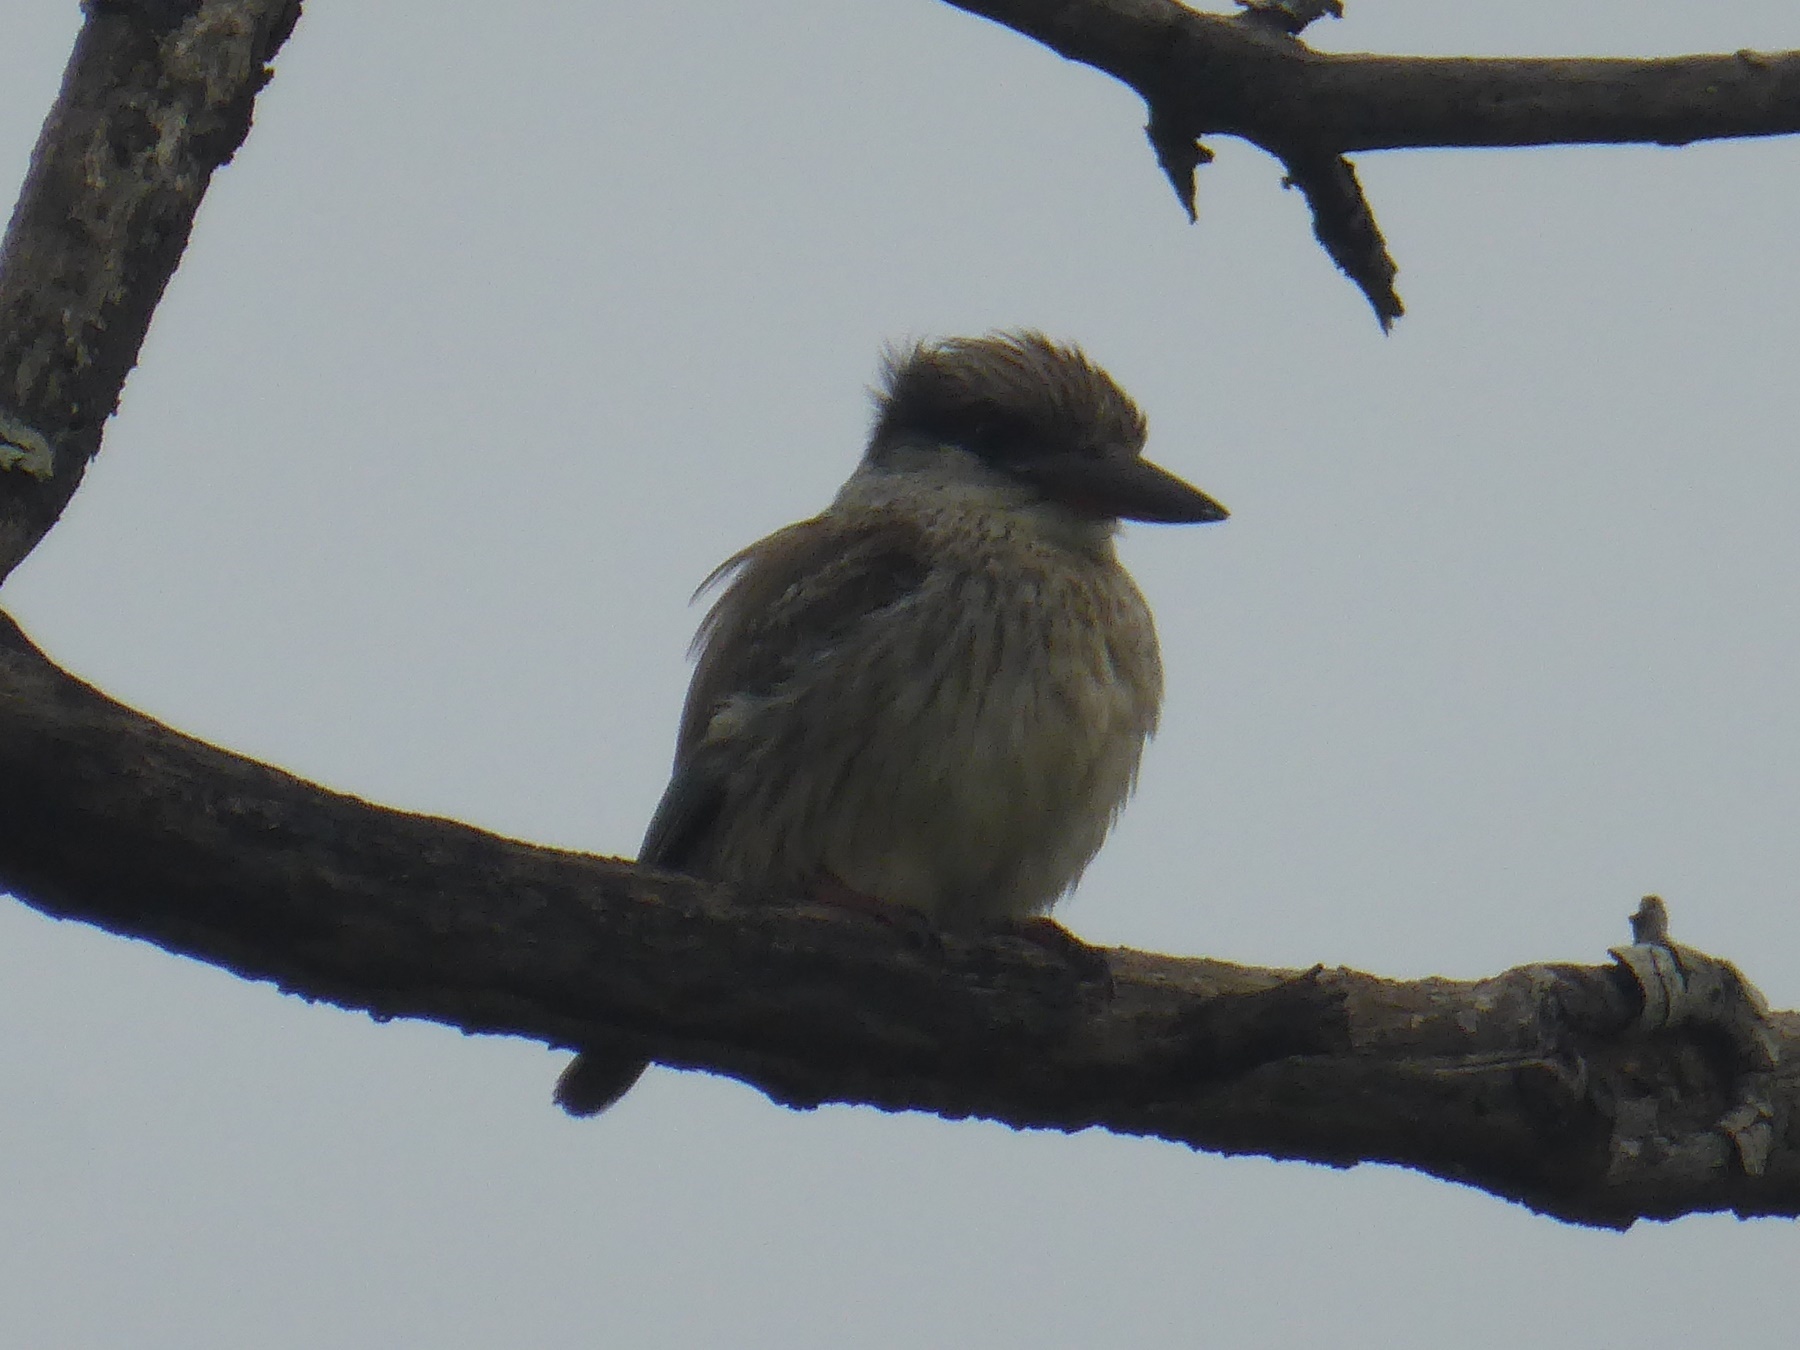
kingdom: Animalia
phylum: Chordata
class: Aves
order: Coraciiformes
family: Alcedinidae
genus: Halcyon
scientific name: Halcyon chelicuti
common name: Striped kingfisher
